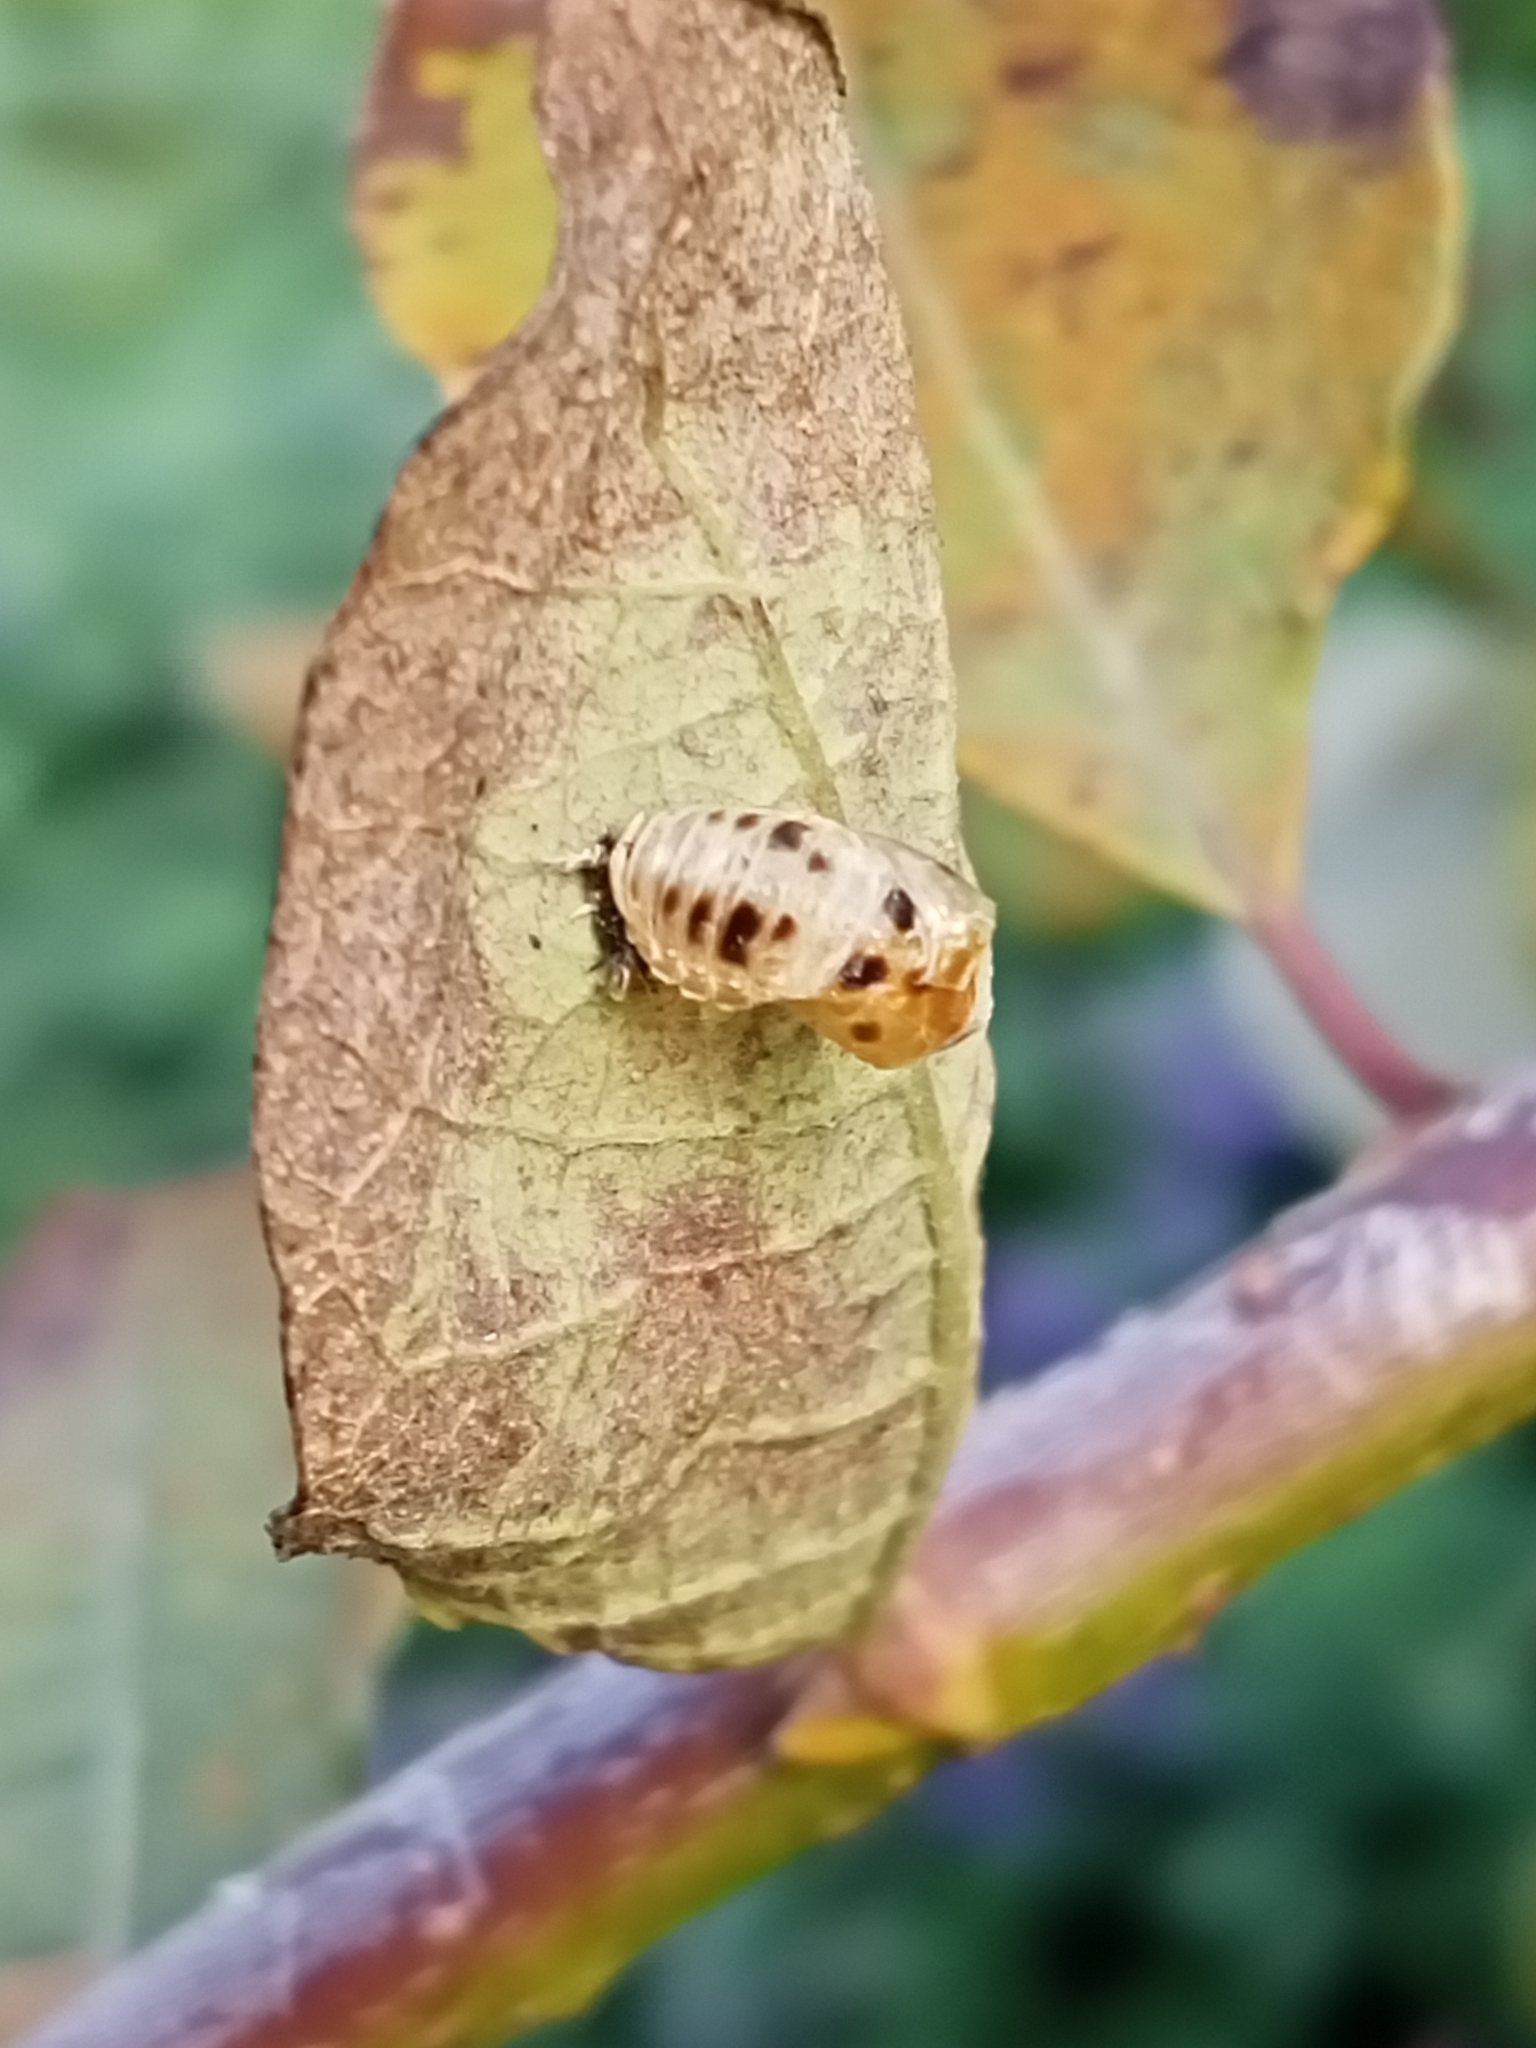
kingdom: Animalia
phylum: Arthropoda
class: Insecta
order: Coleoptera
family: Coccinellidae
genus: Harmonia
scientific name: Harmonia axyridis
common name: Harlequin ladybird
